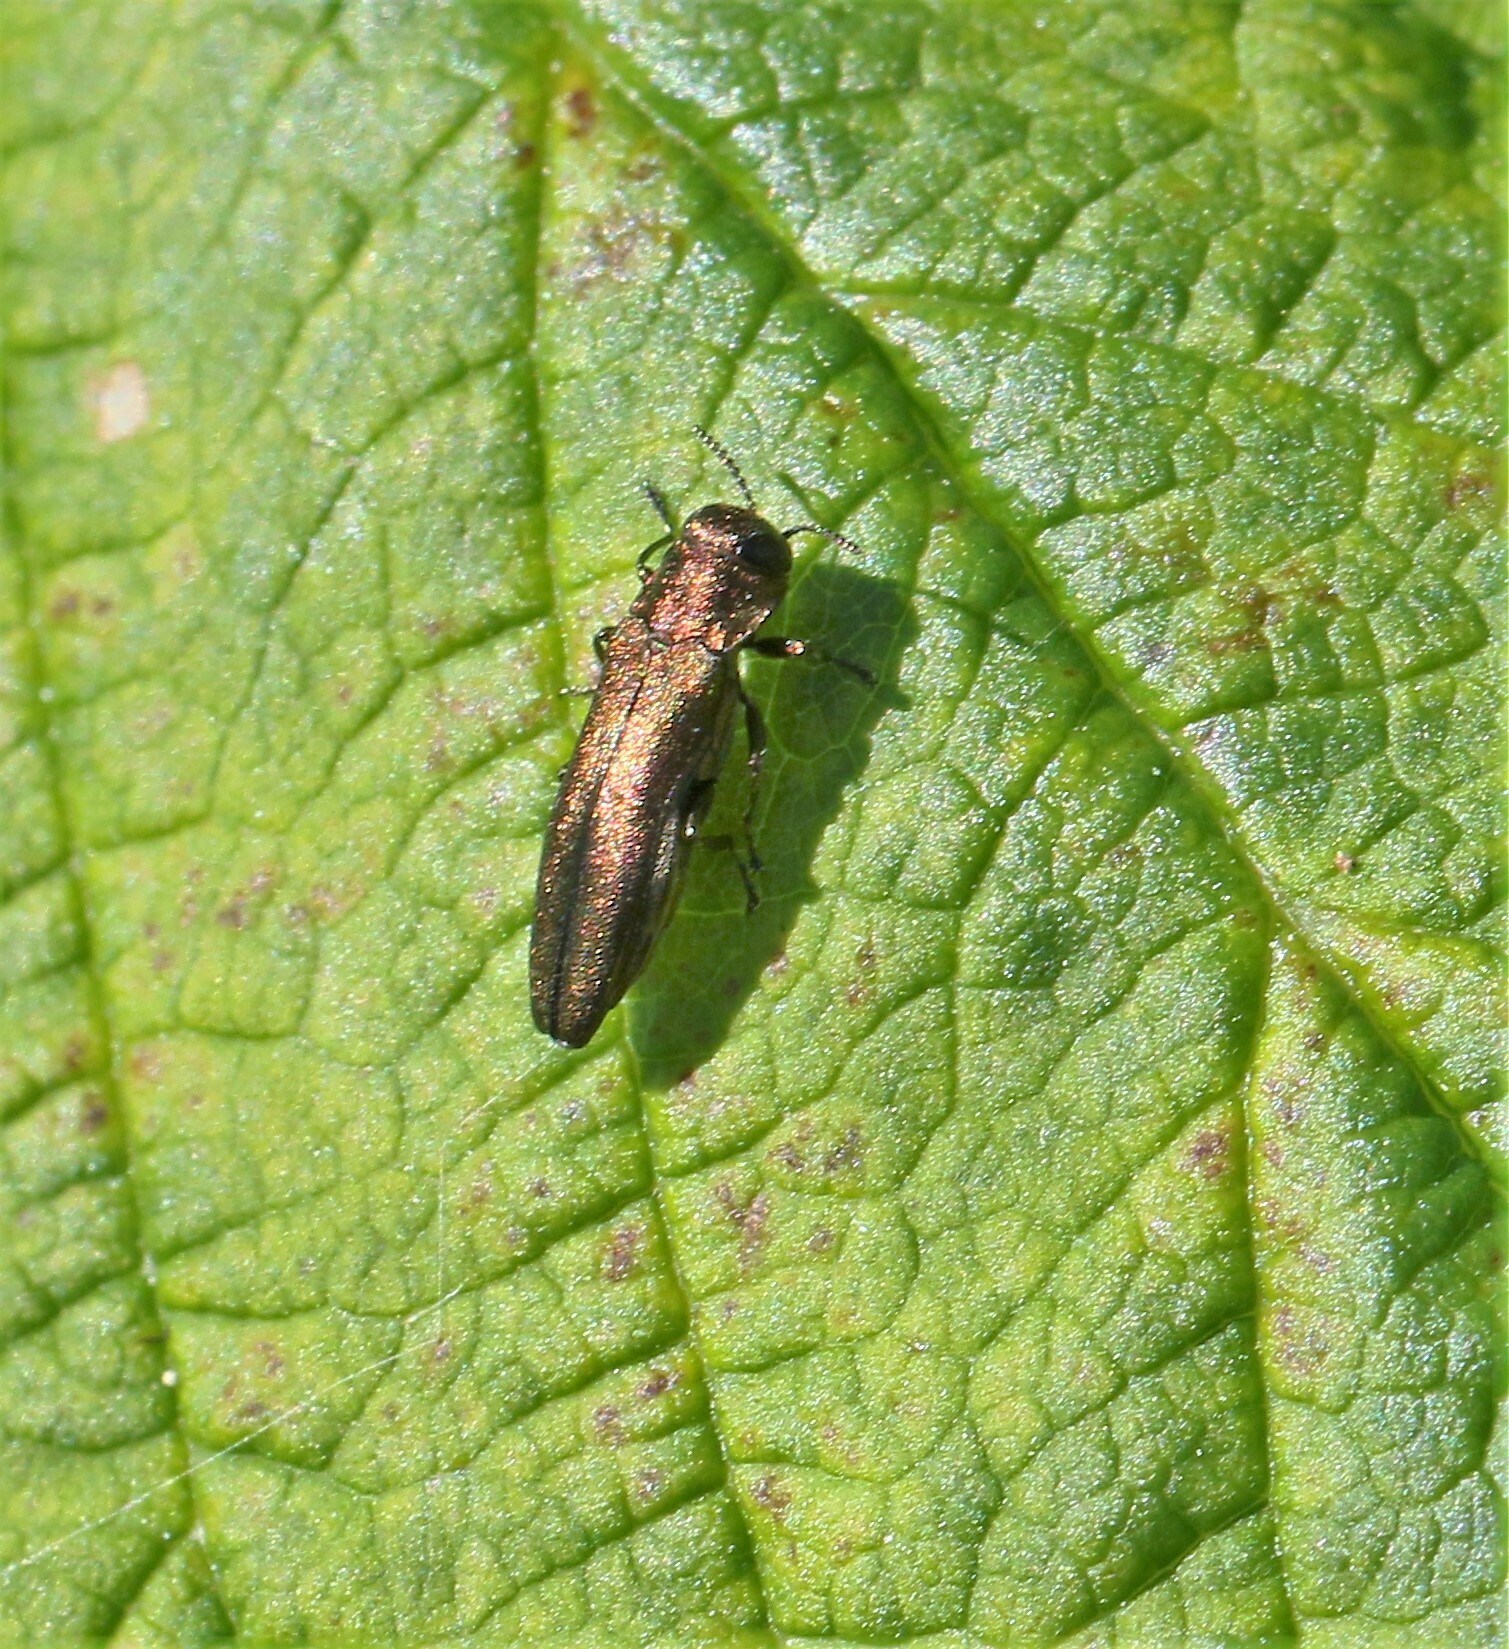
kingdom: Animalia
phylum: Arthropoda
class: Insecta
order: Coleoptera
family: Buprestidae
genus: Agrilus
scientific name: Agrilus cuprescens
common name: Rose stem girdler
